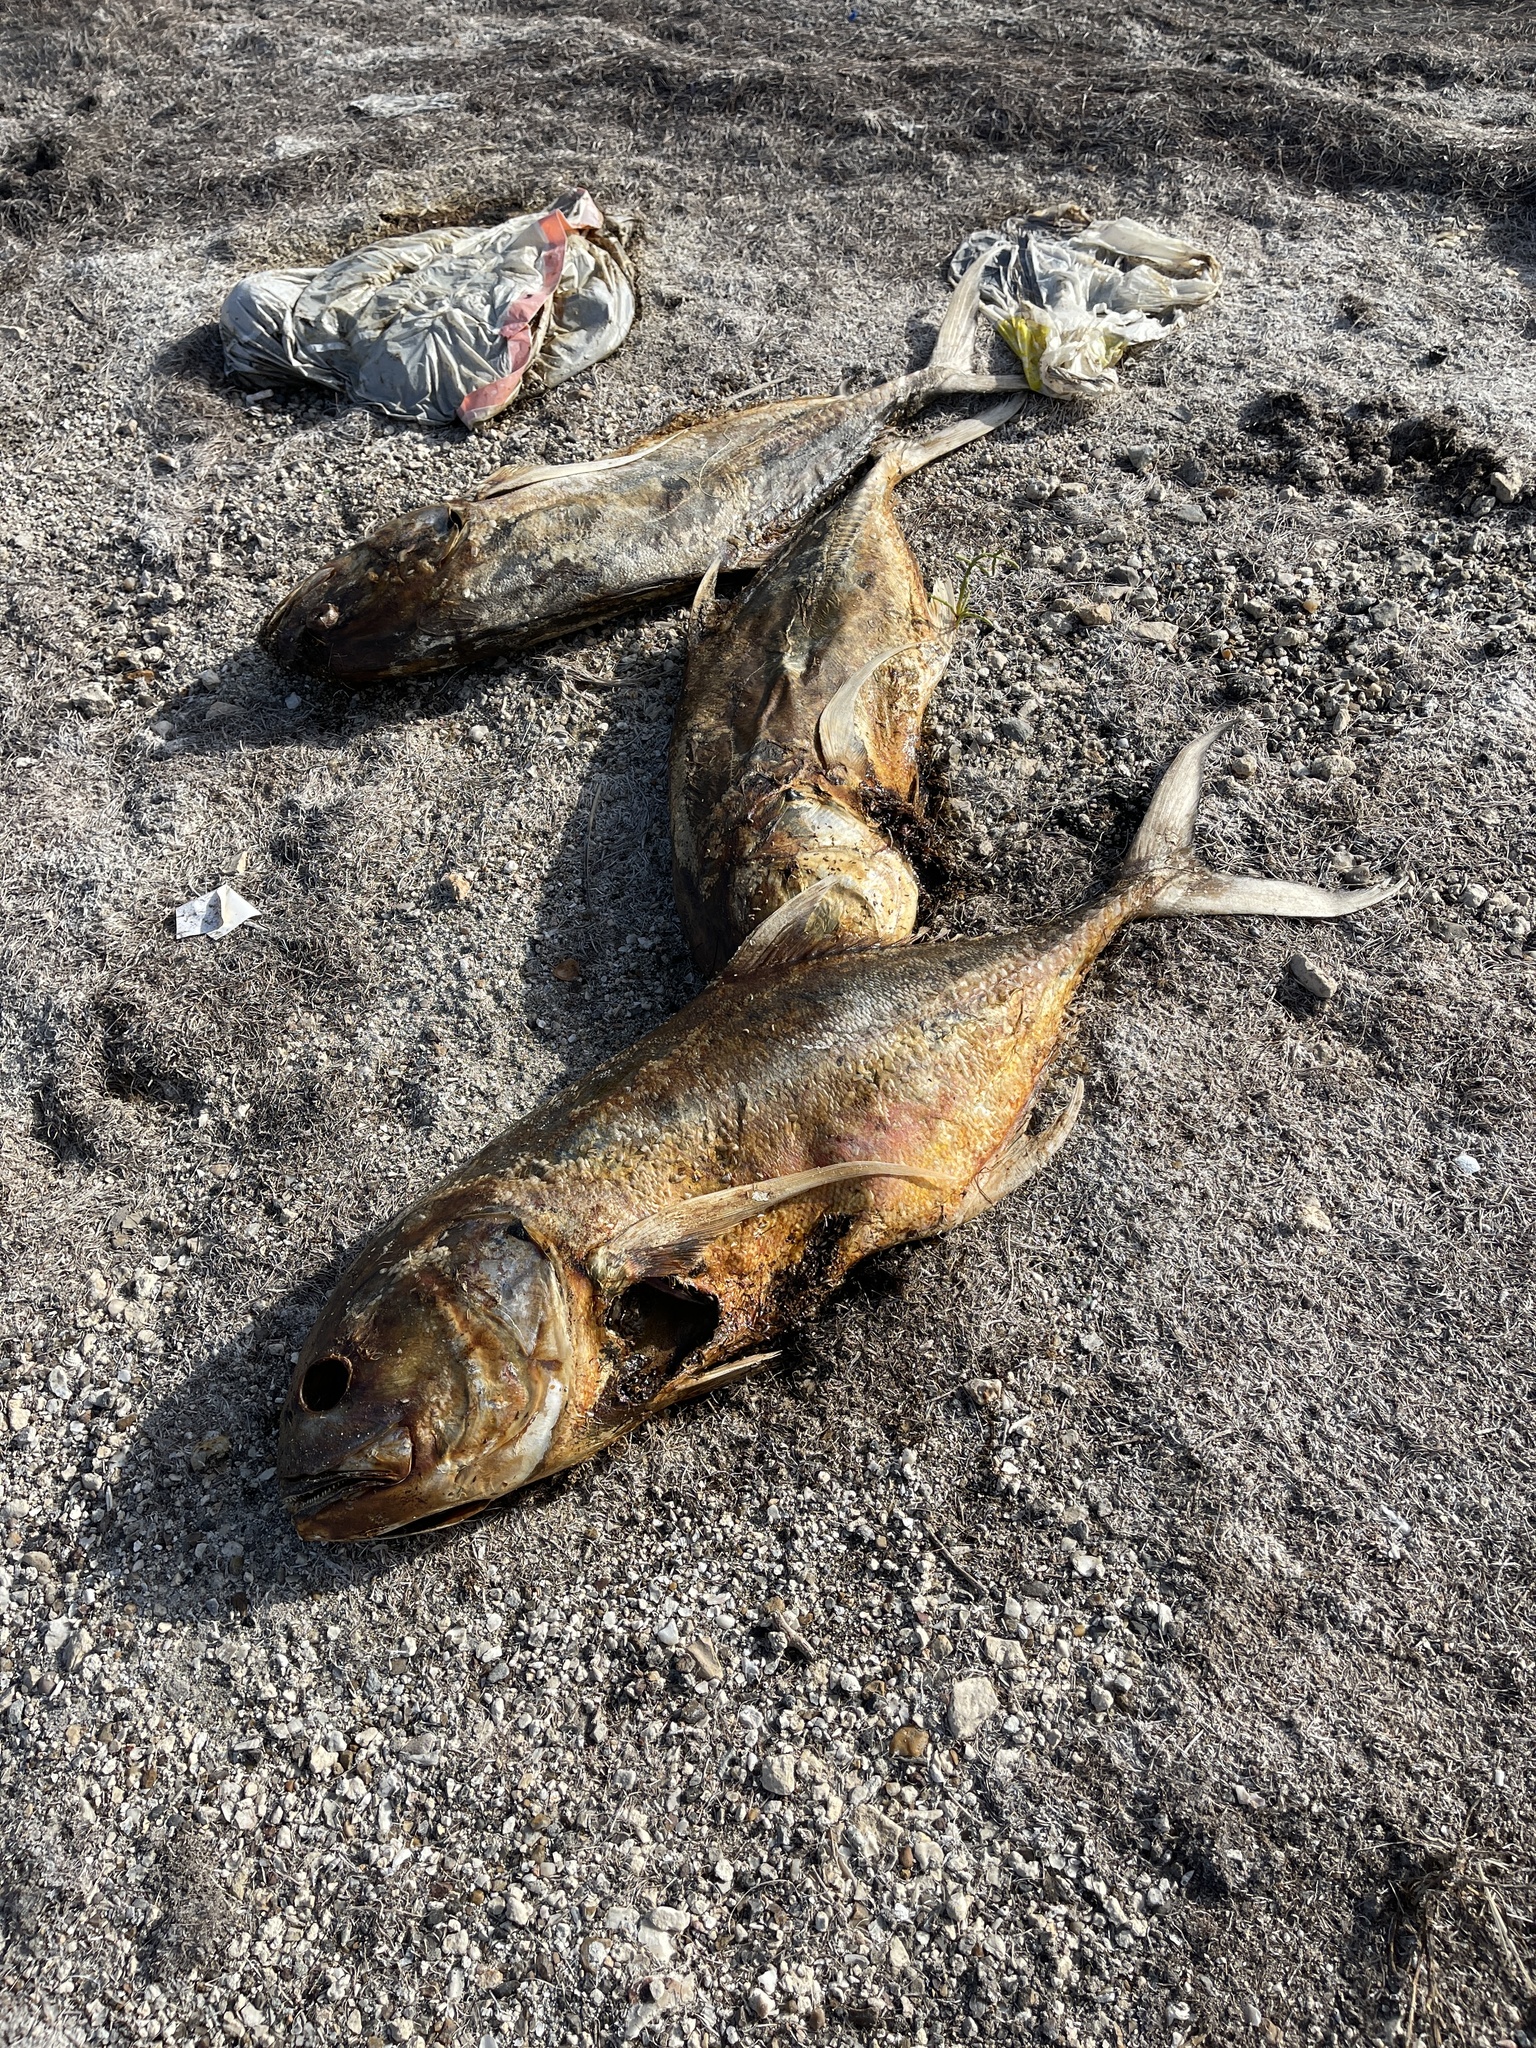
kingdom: Animalia
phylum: Chordata
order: Perciformes
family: Carangidae
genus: Caranx
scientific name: Caranx hippos
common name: Common jack
